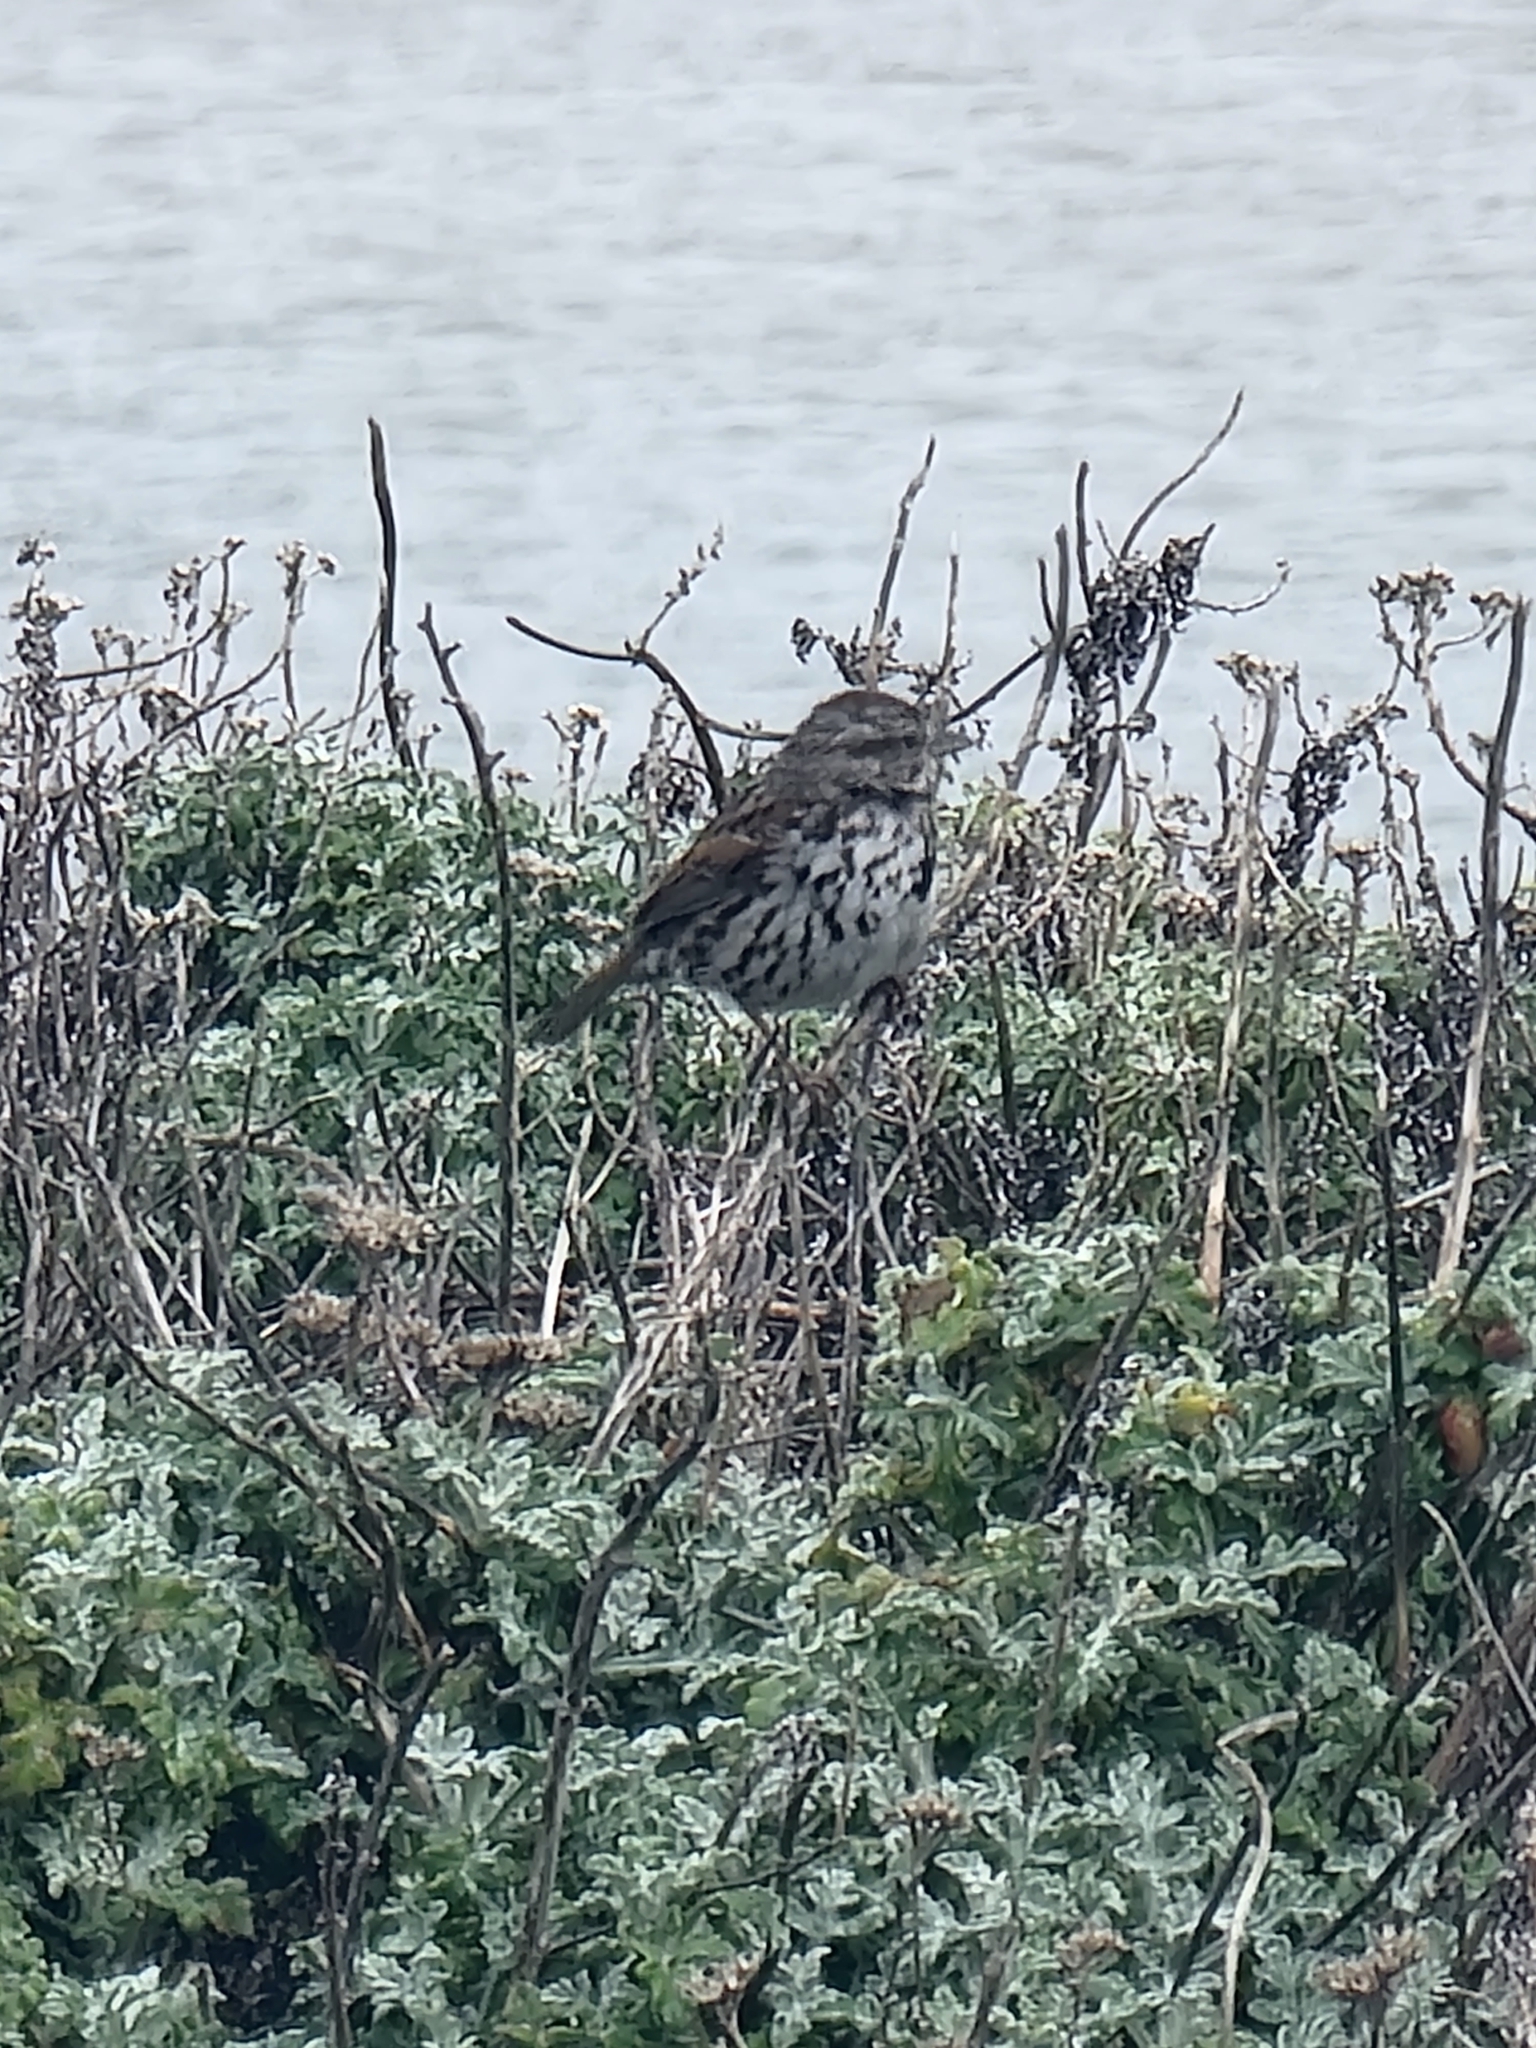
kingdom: Animalia
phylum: Chordata
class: Aves
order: Passeriformes
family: Passerellidae
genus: Melospiza
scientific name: Melospiza melodia
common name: Song sparrow
